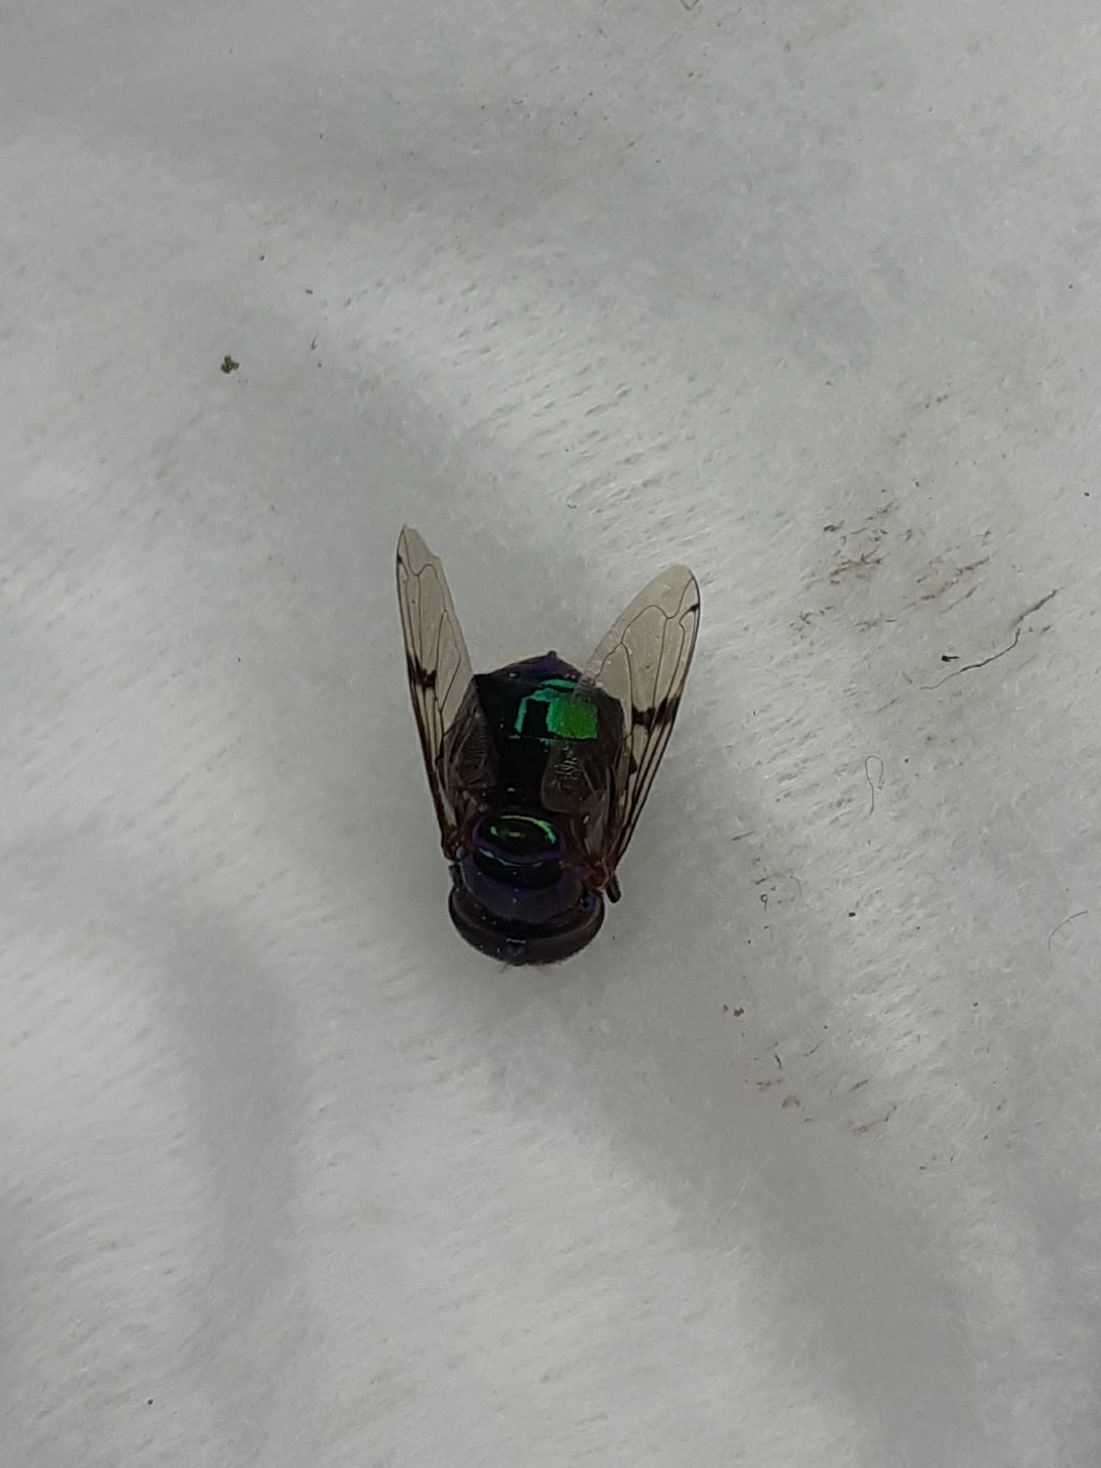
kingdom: Animalia
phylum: Arthropoda
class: Insecta
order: Diptera
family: Syrphidae
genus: Ornidia
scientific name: Ornidia obesa
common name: Syrphid fly
